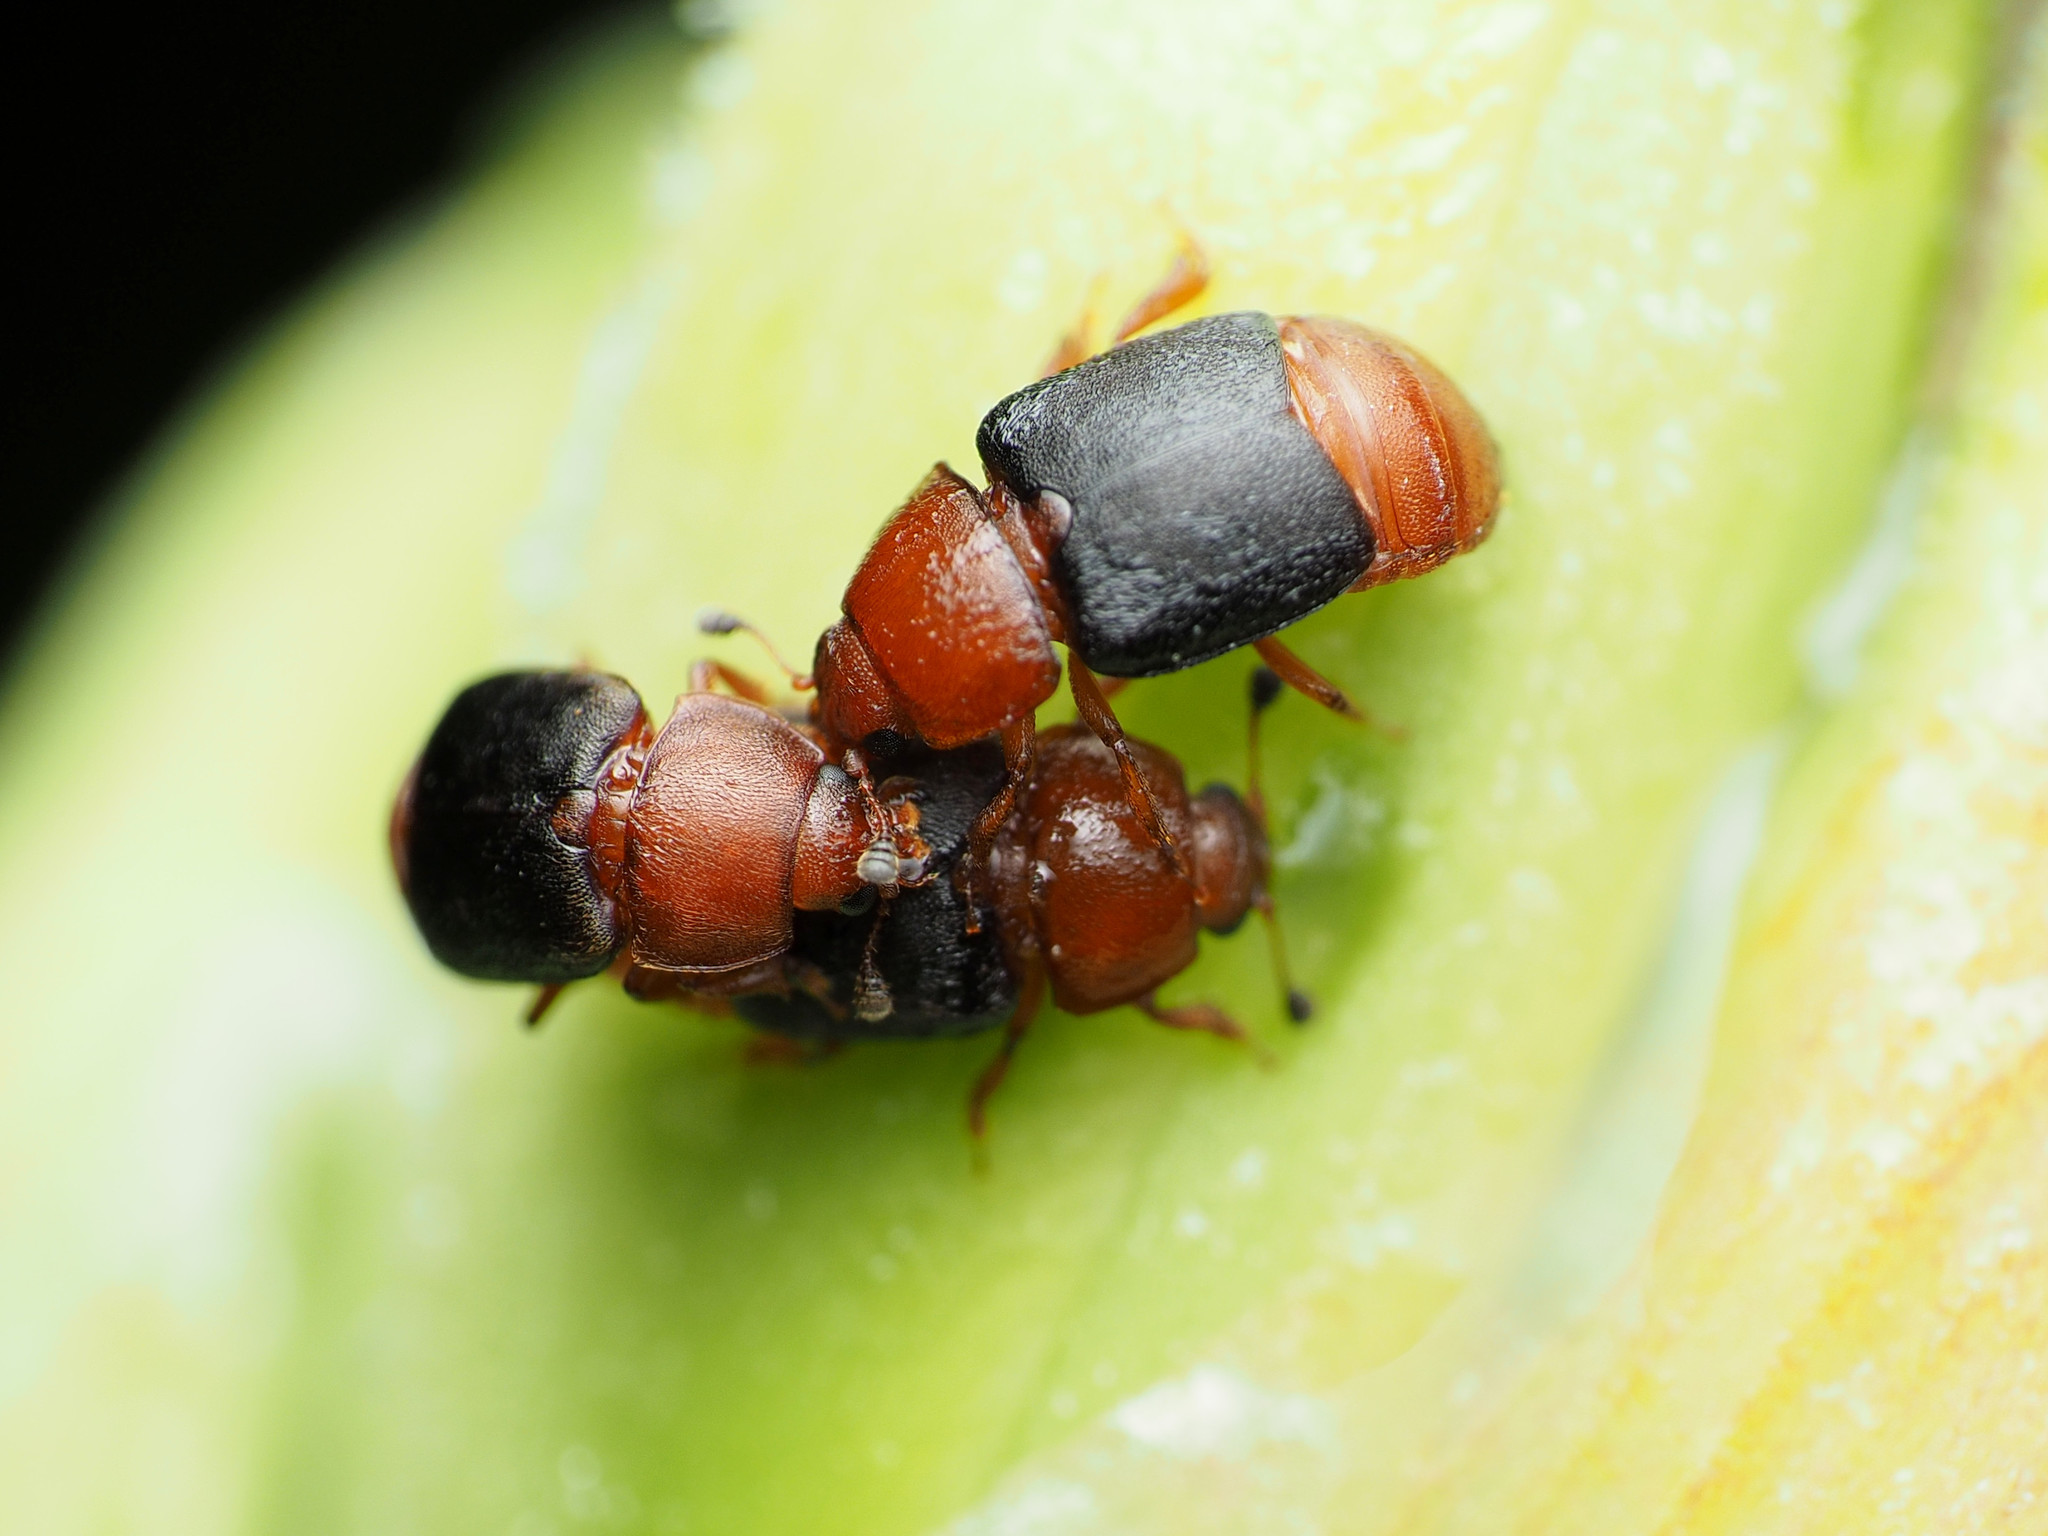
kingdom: Animalia
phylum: Arthropoda
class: Insecta
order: Coleoptera
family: Nitidulidae
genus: Carpophilus
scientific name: Carpophilus
